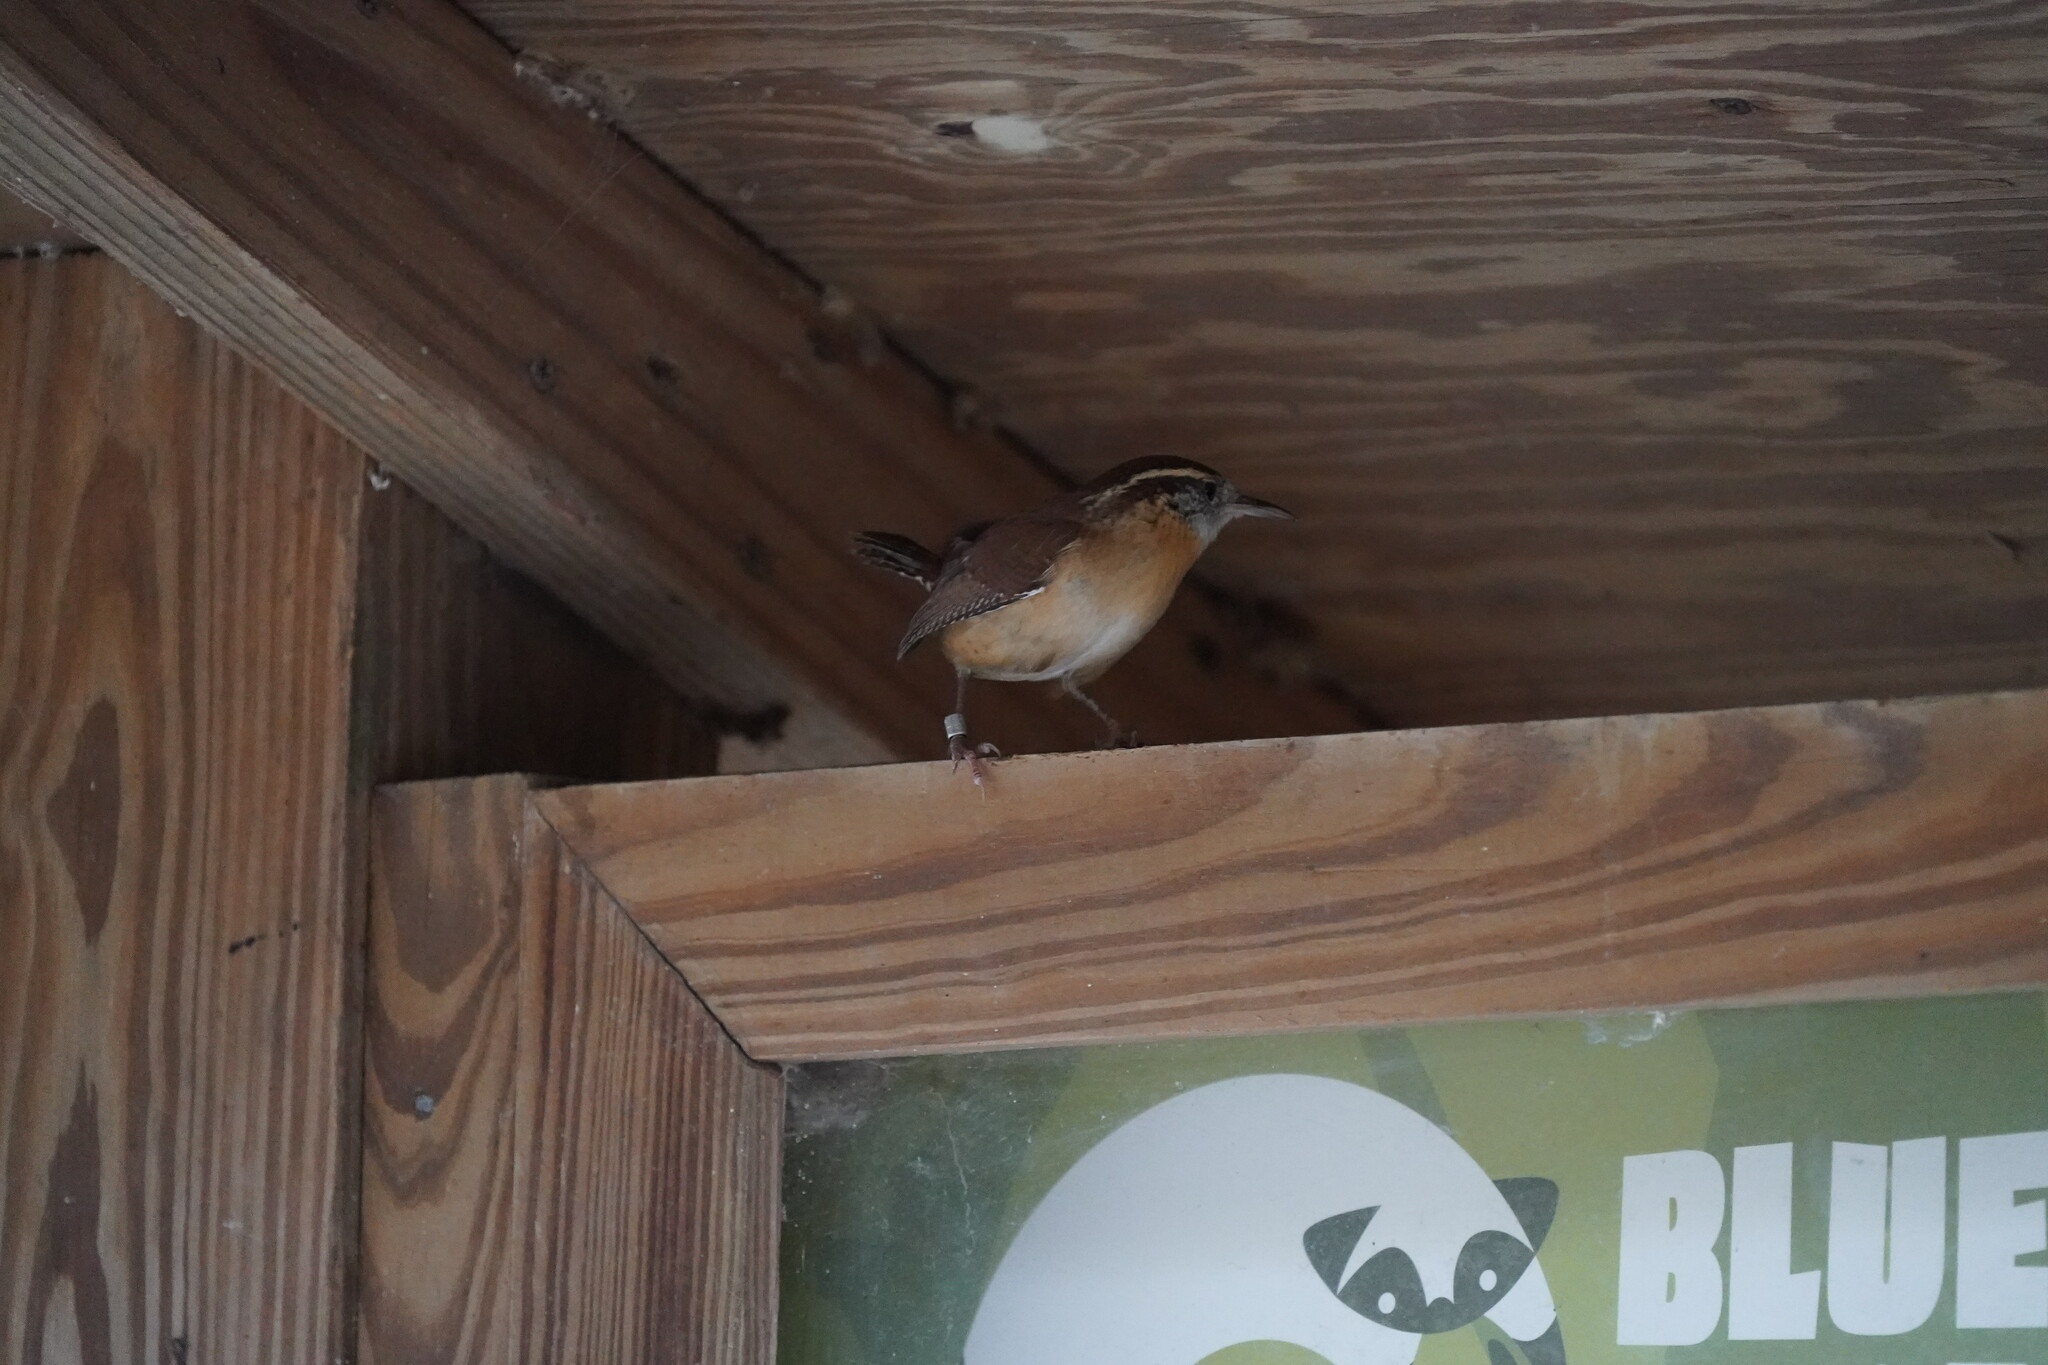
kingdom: Animalia
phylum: Chordata
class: Aves
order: Passeriformes
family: Troglodytidae
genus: Thryothorus
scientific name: Thryothorus ludovicianus
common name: Carolina wren
